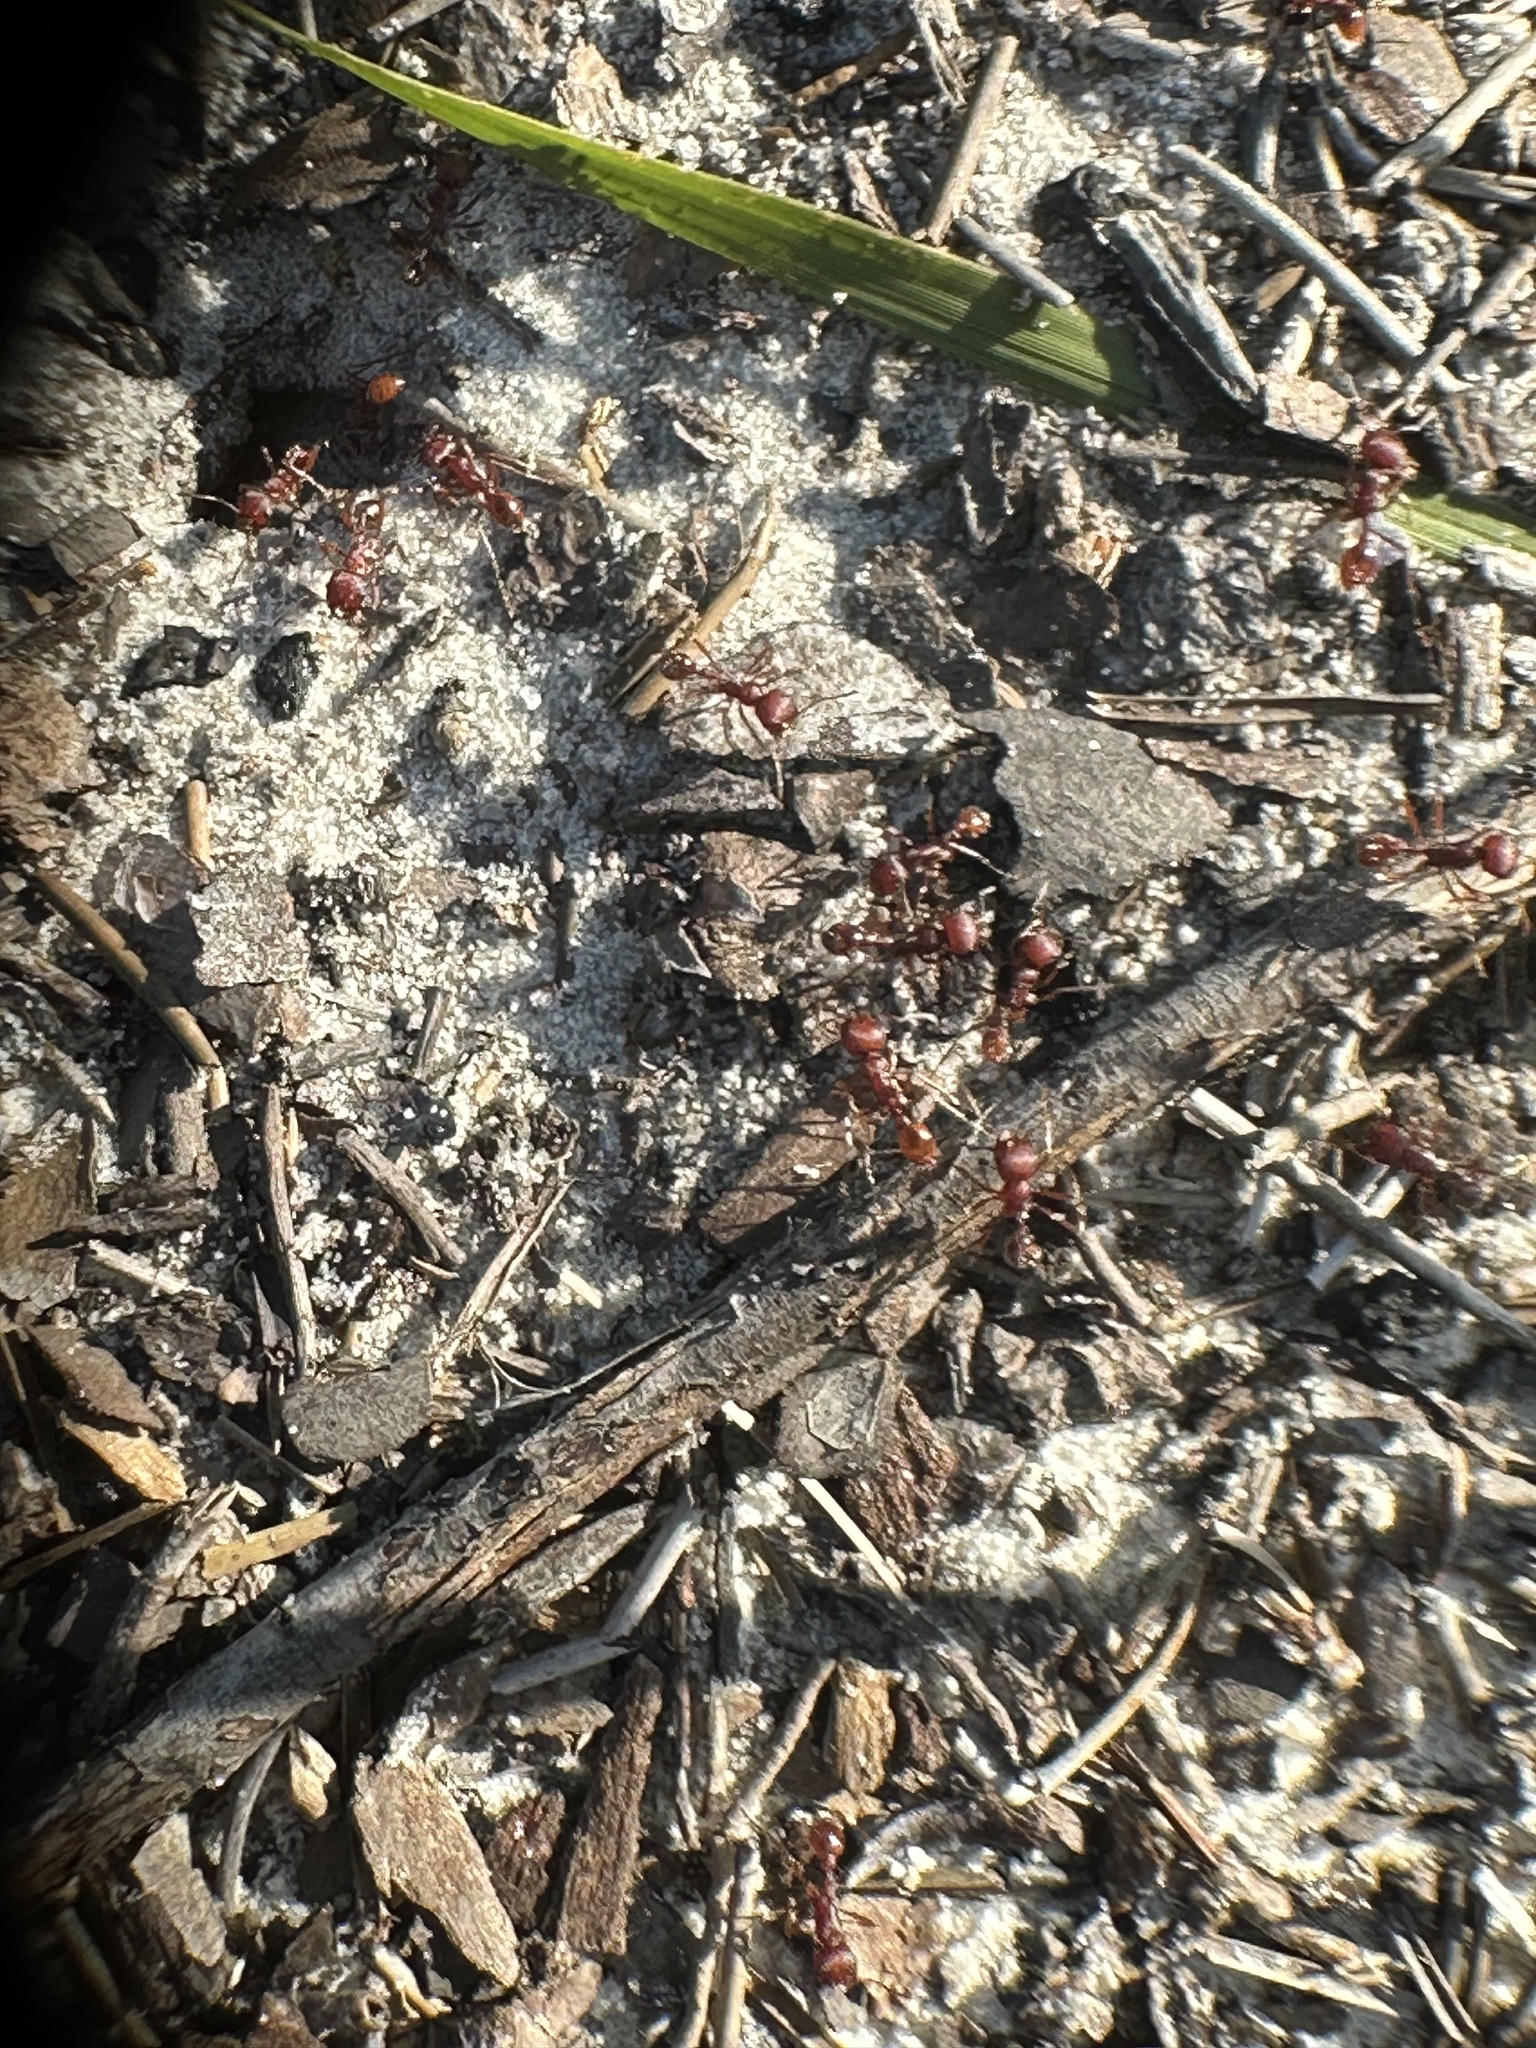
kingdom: Animalia
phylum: Arthropoda
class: Insecta
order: Hymenoptera
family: Formicidae
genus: Pogonomyrmex
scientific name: Pogonomyrmex badius
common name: Florida harvester ant
